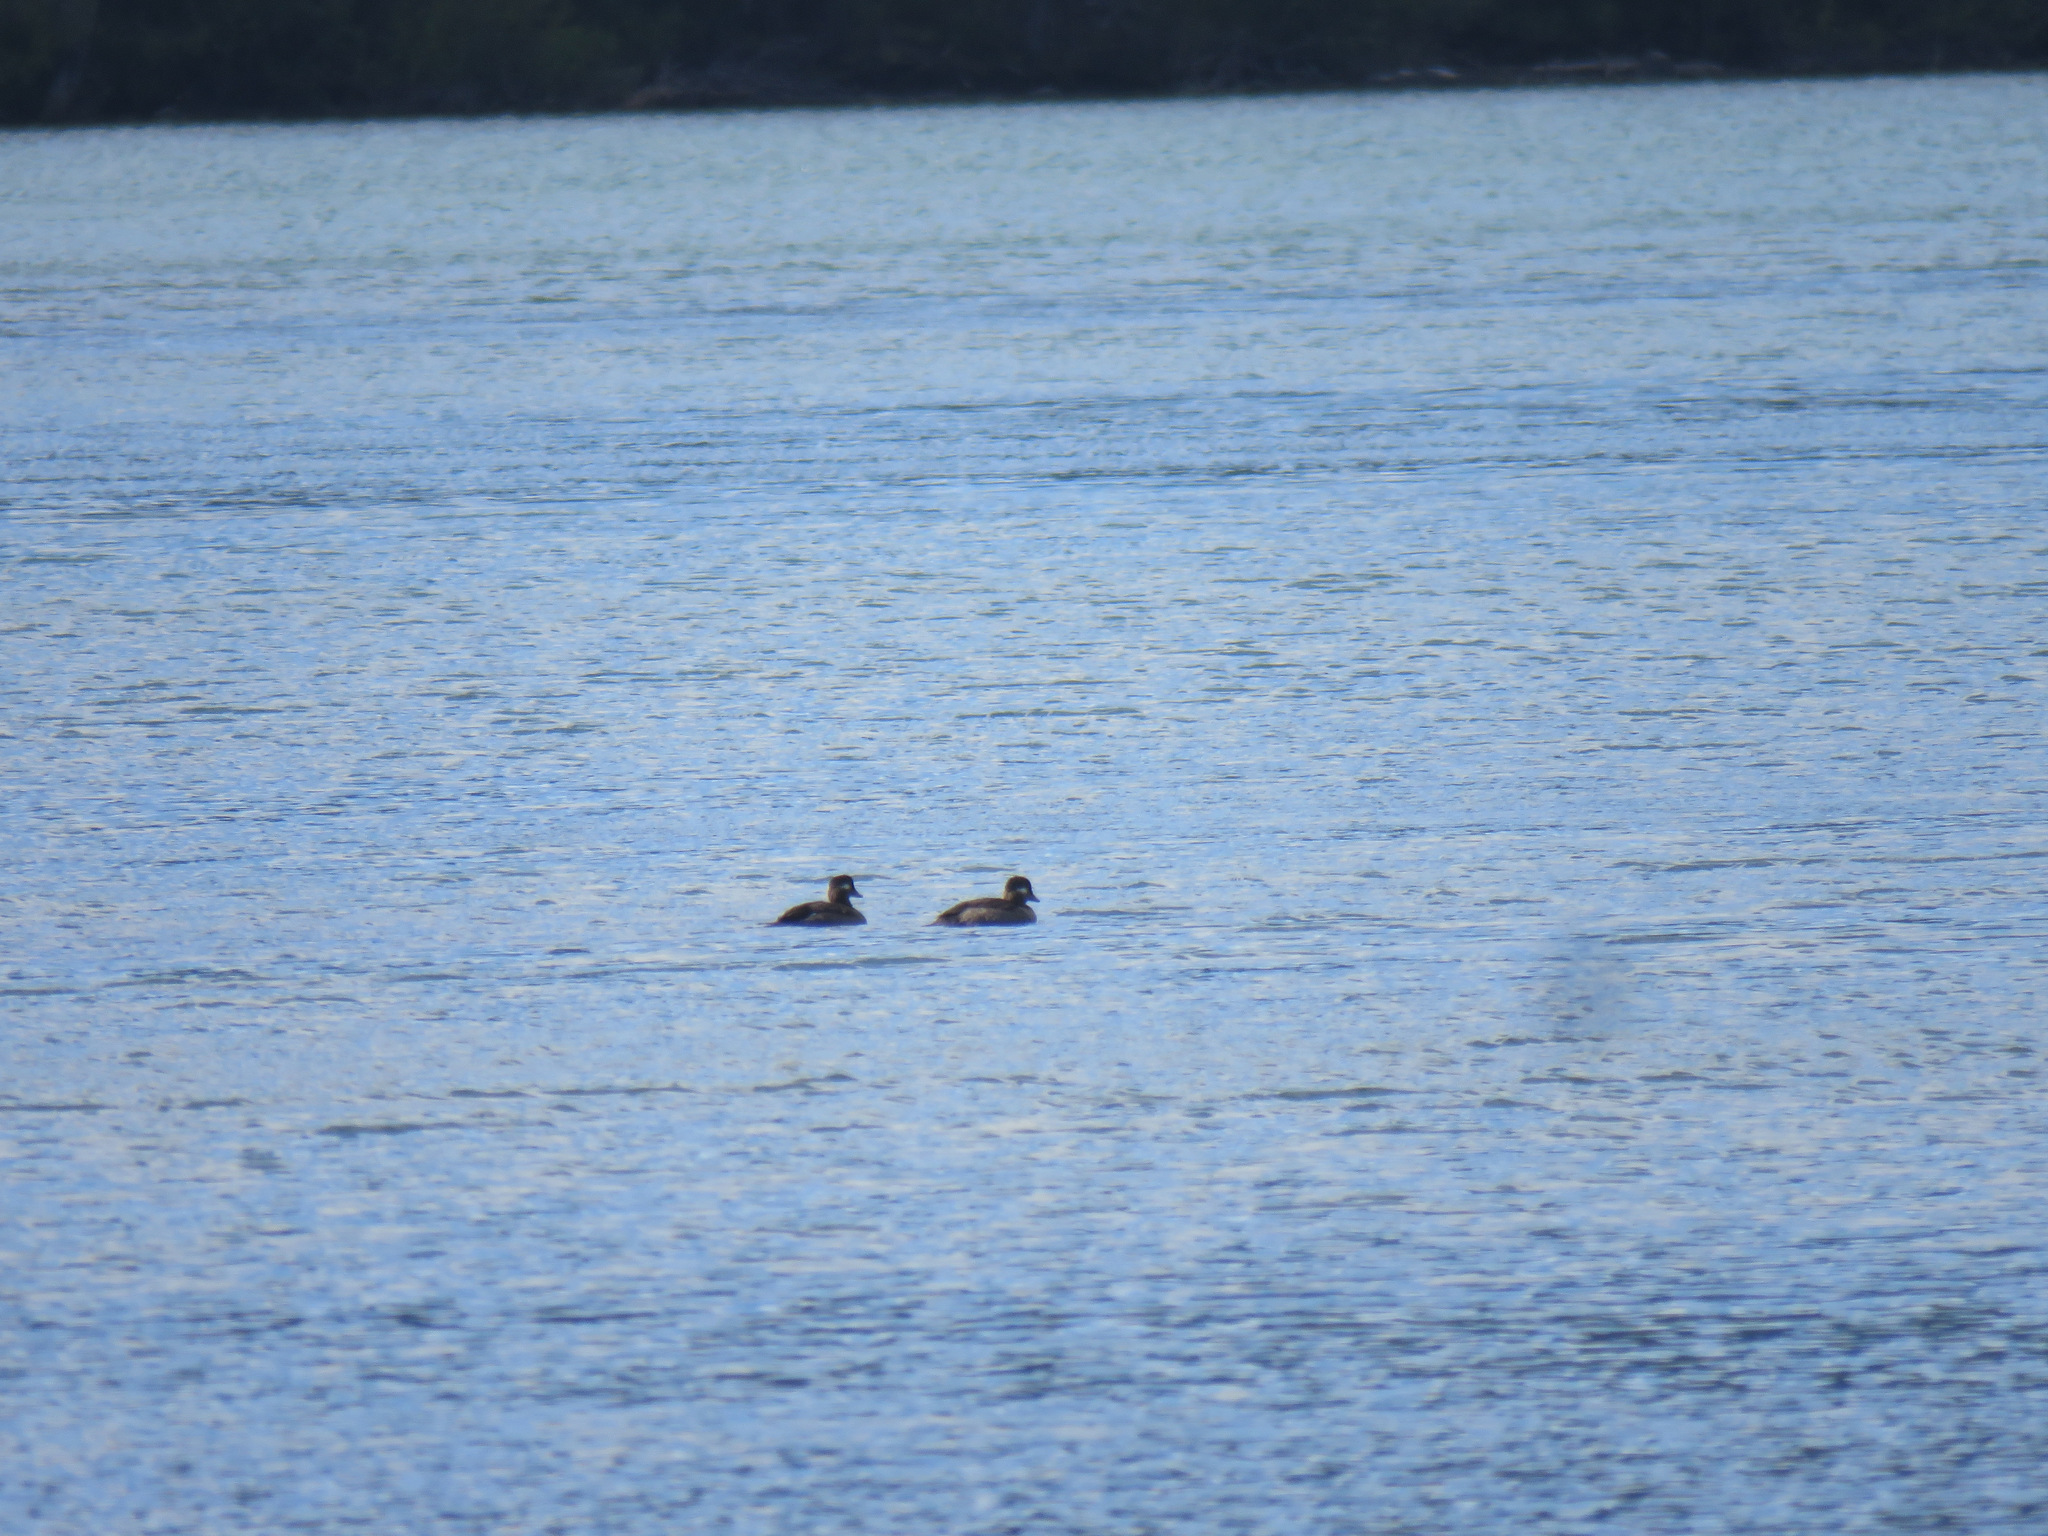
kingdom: Animalia
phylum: Chordata
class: Aves
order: Anseriformes
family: Anatidae
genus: Bucephala
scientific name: Bucephala albeola
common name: Bufflehead
